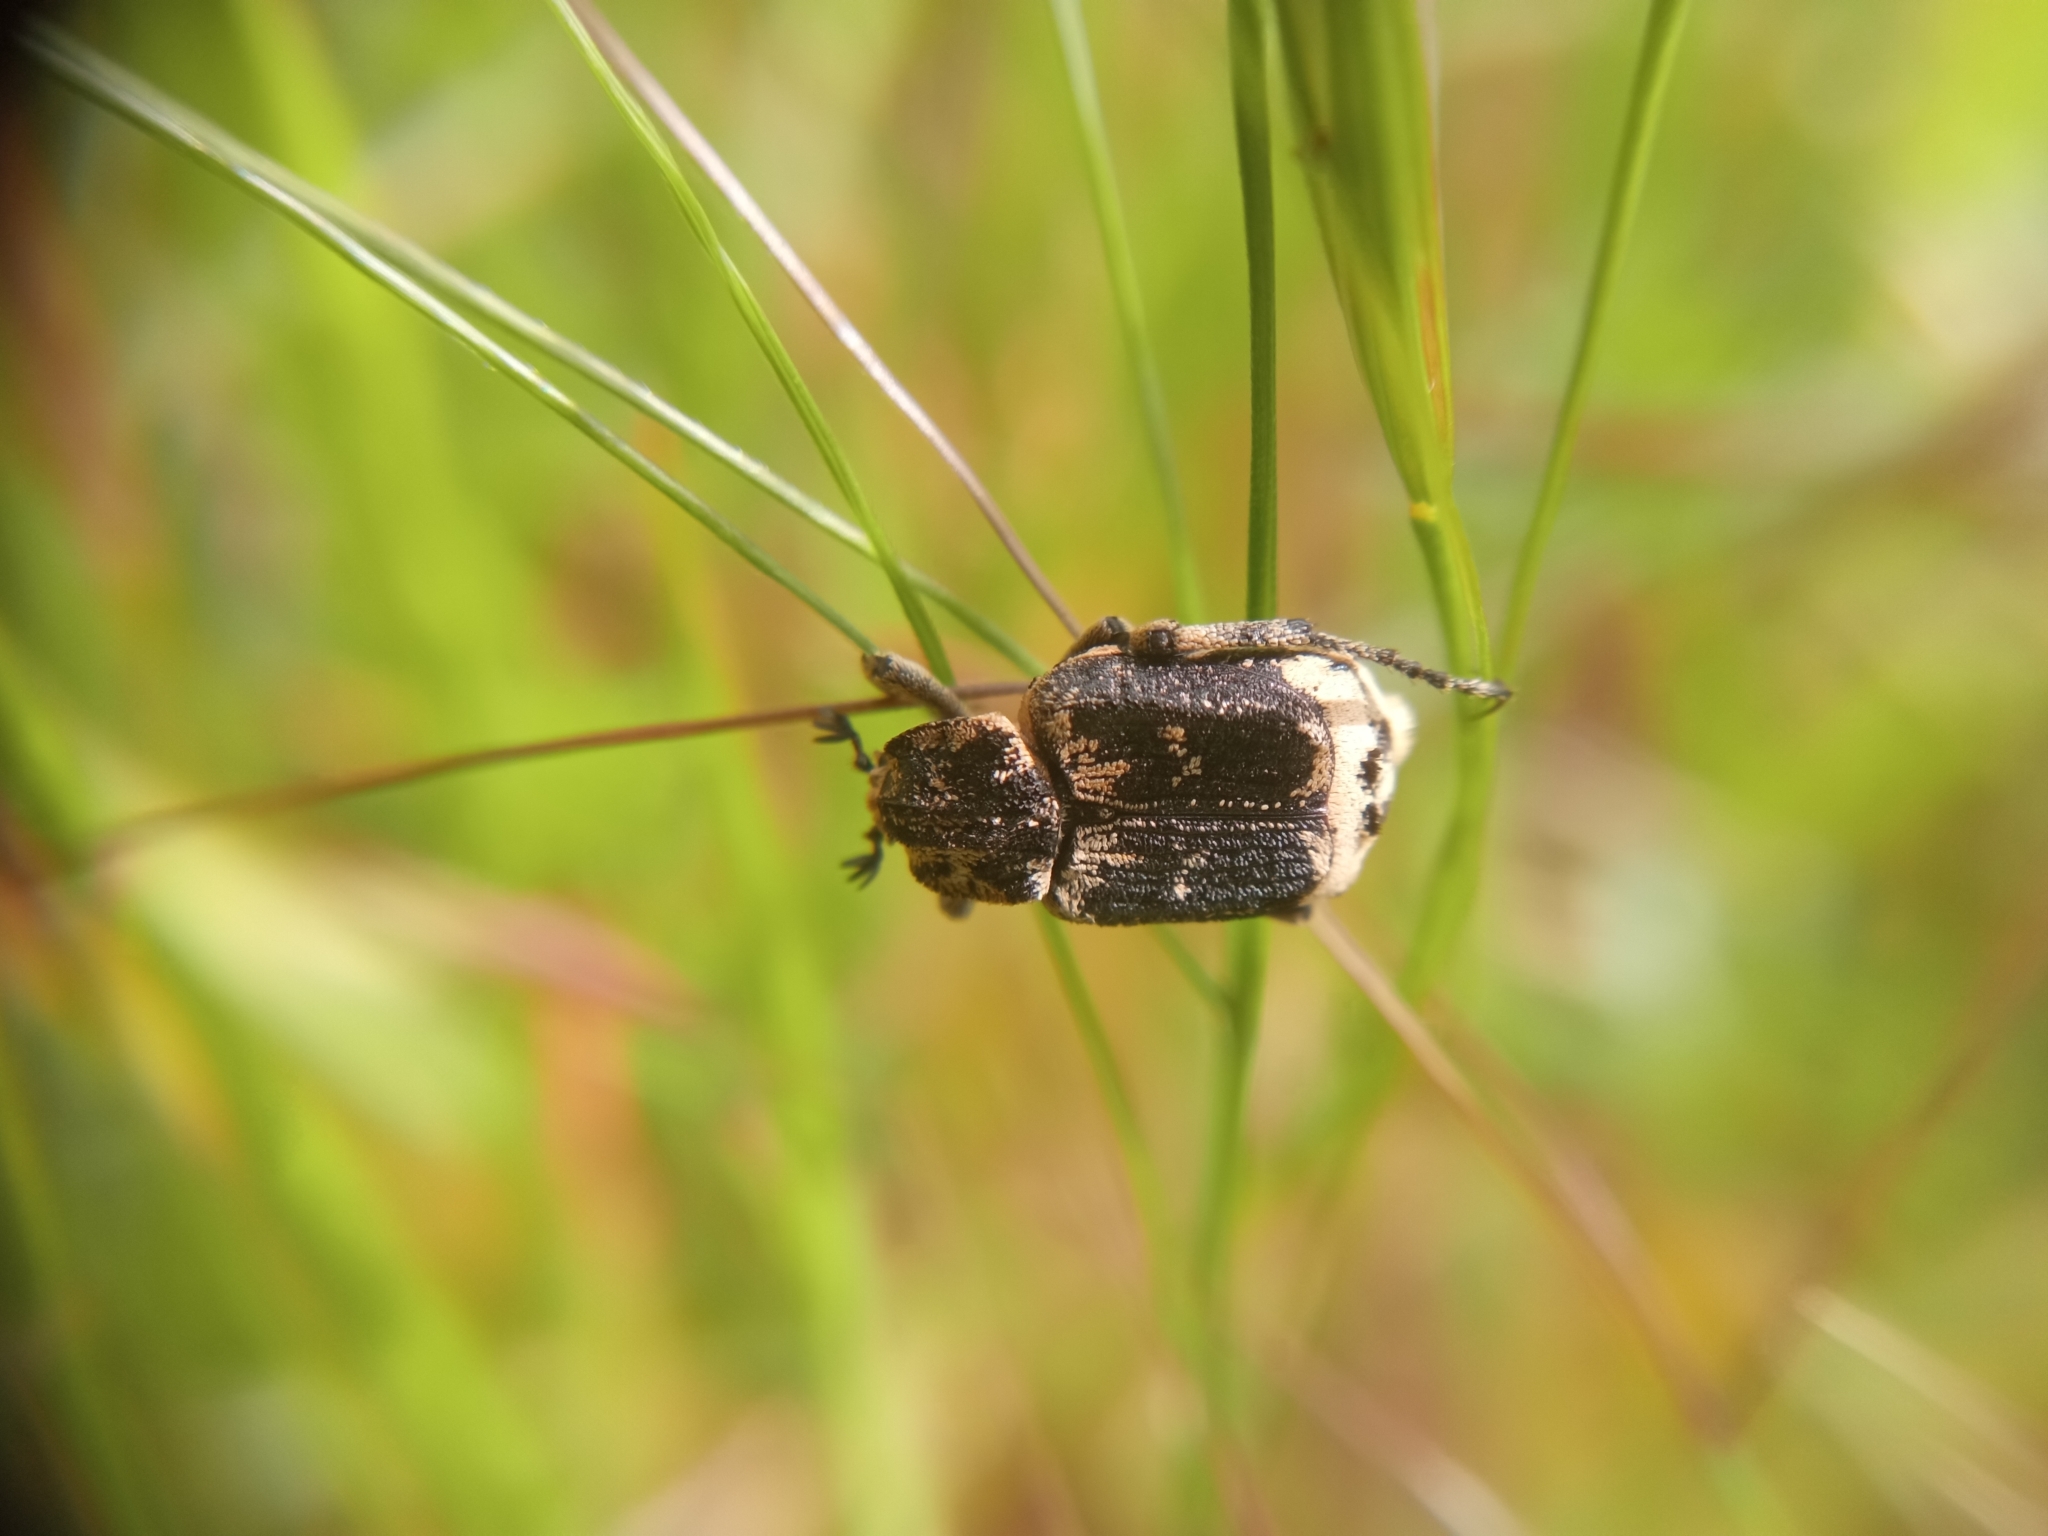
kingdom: Animalia
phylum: Arthropoda
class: Insecta
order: Coleoptera
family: Scarabaeidae
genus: Valgus
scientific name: Valgus hemipterus
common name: Bug flower chafer
